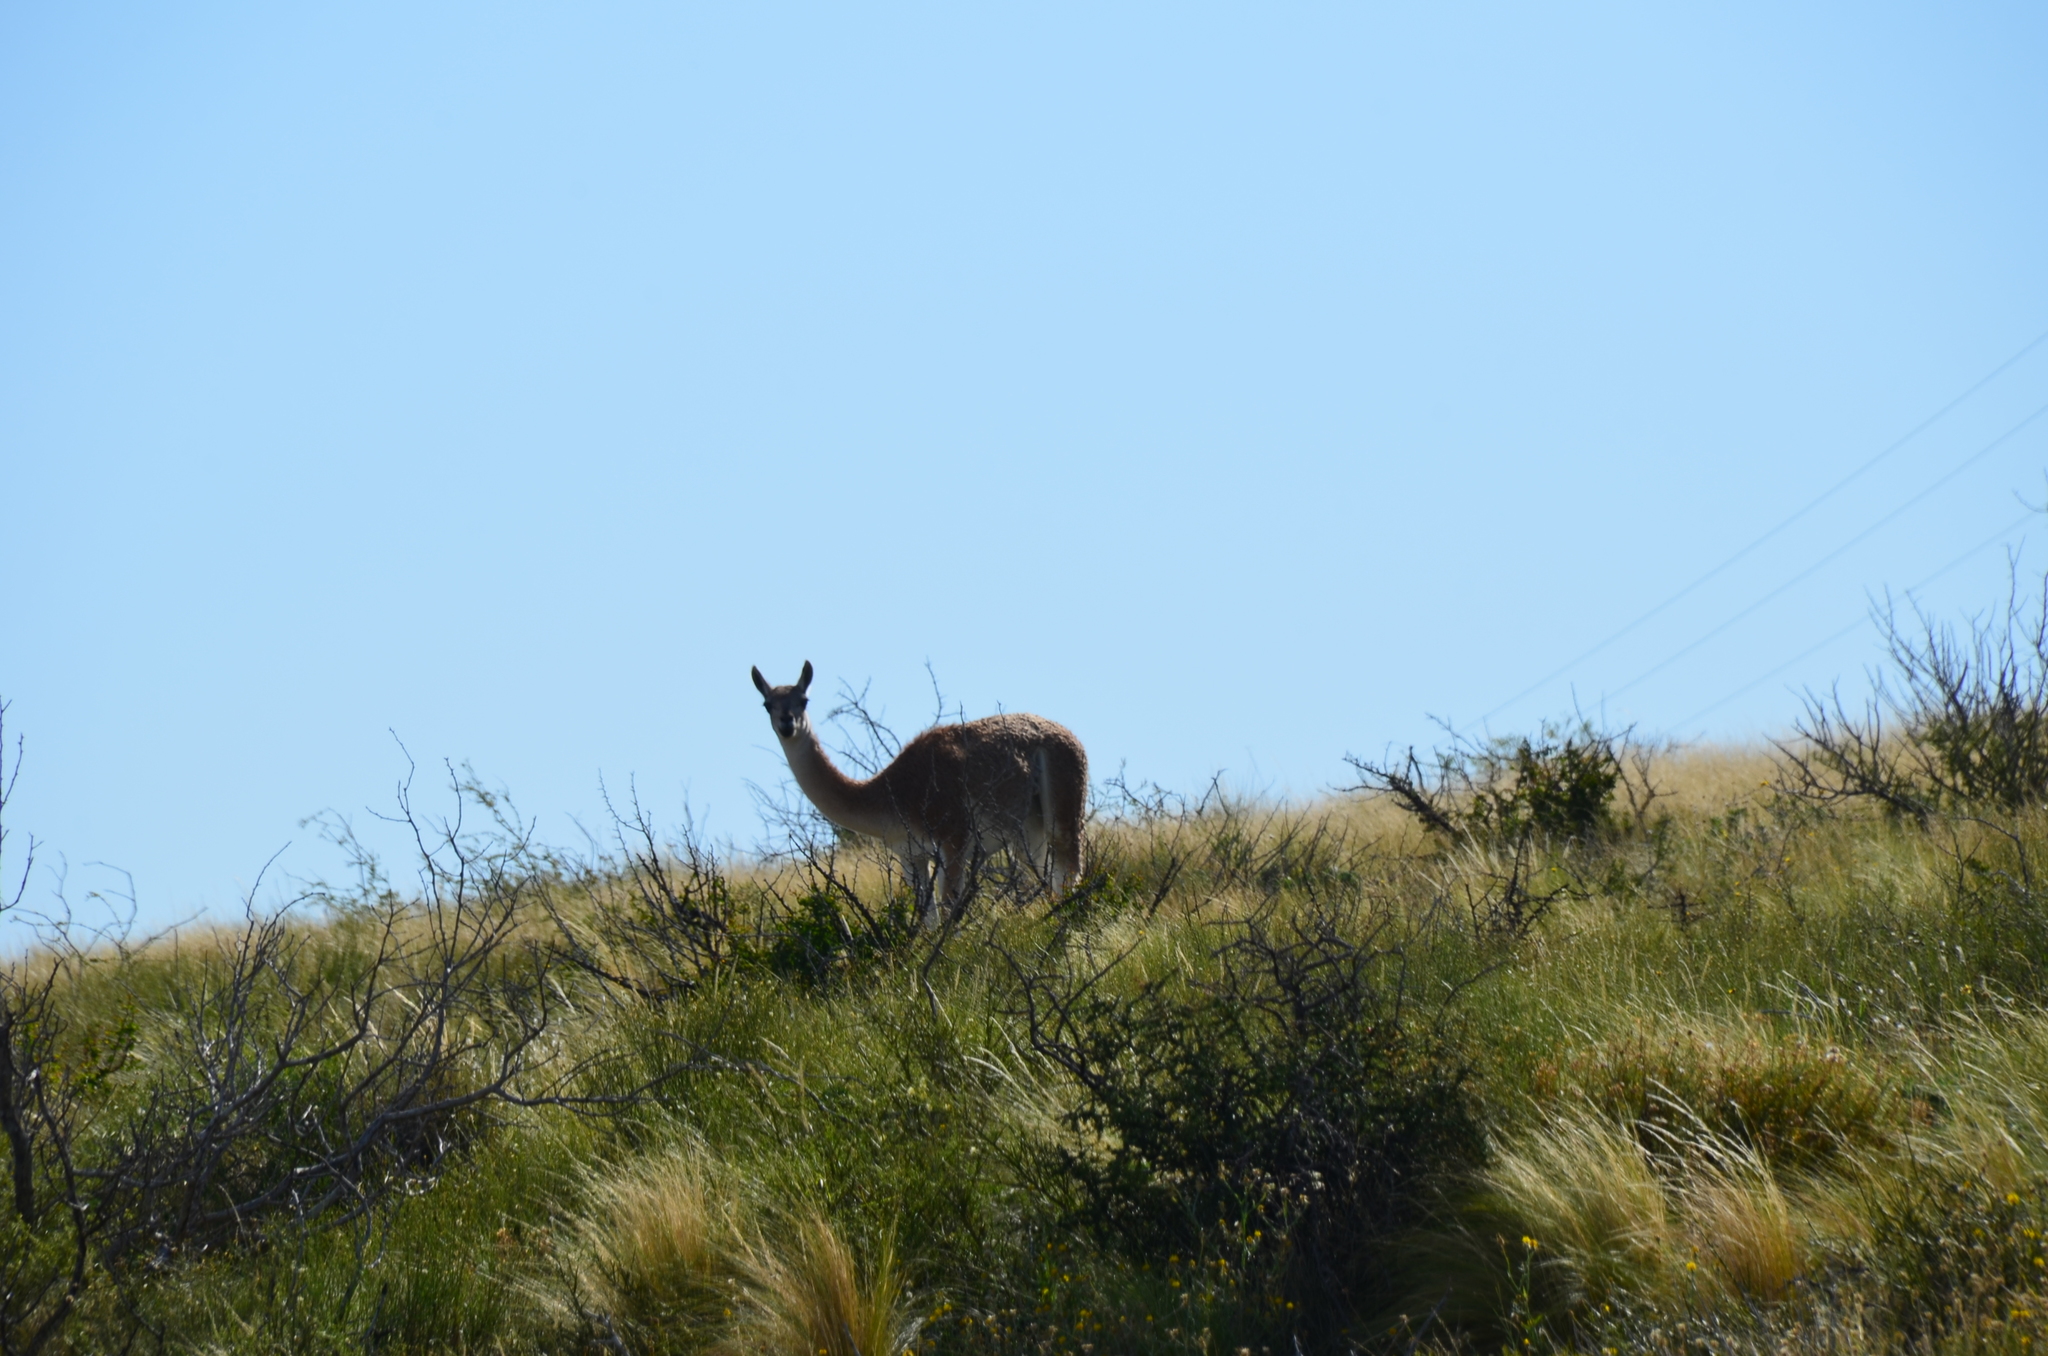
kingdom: Animalia
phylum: Chordata
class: Mammalia
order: Artiodactyla
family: Camelidae
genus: Lama
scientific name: Lama glama
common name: Llama
